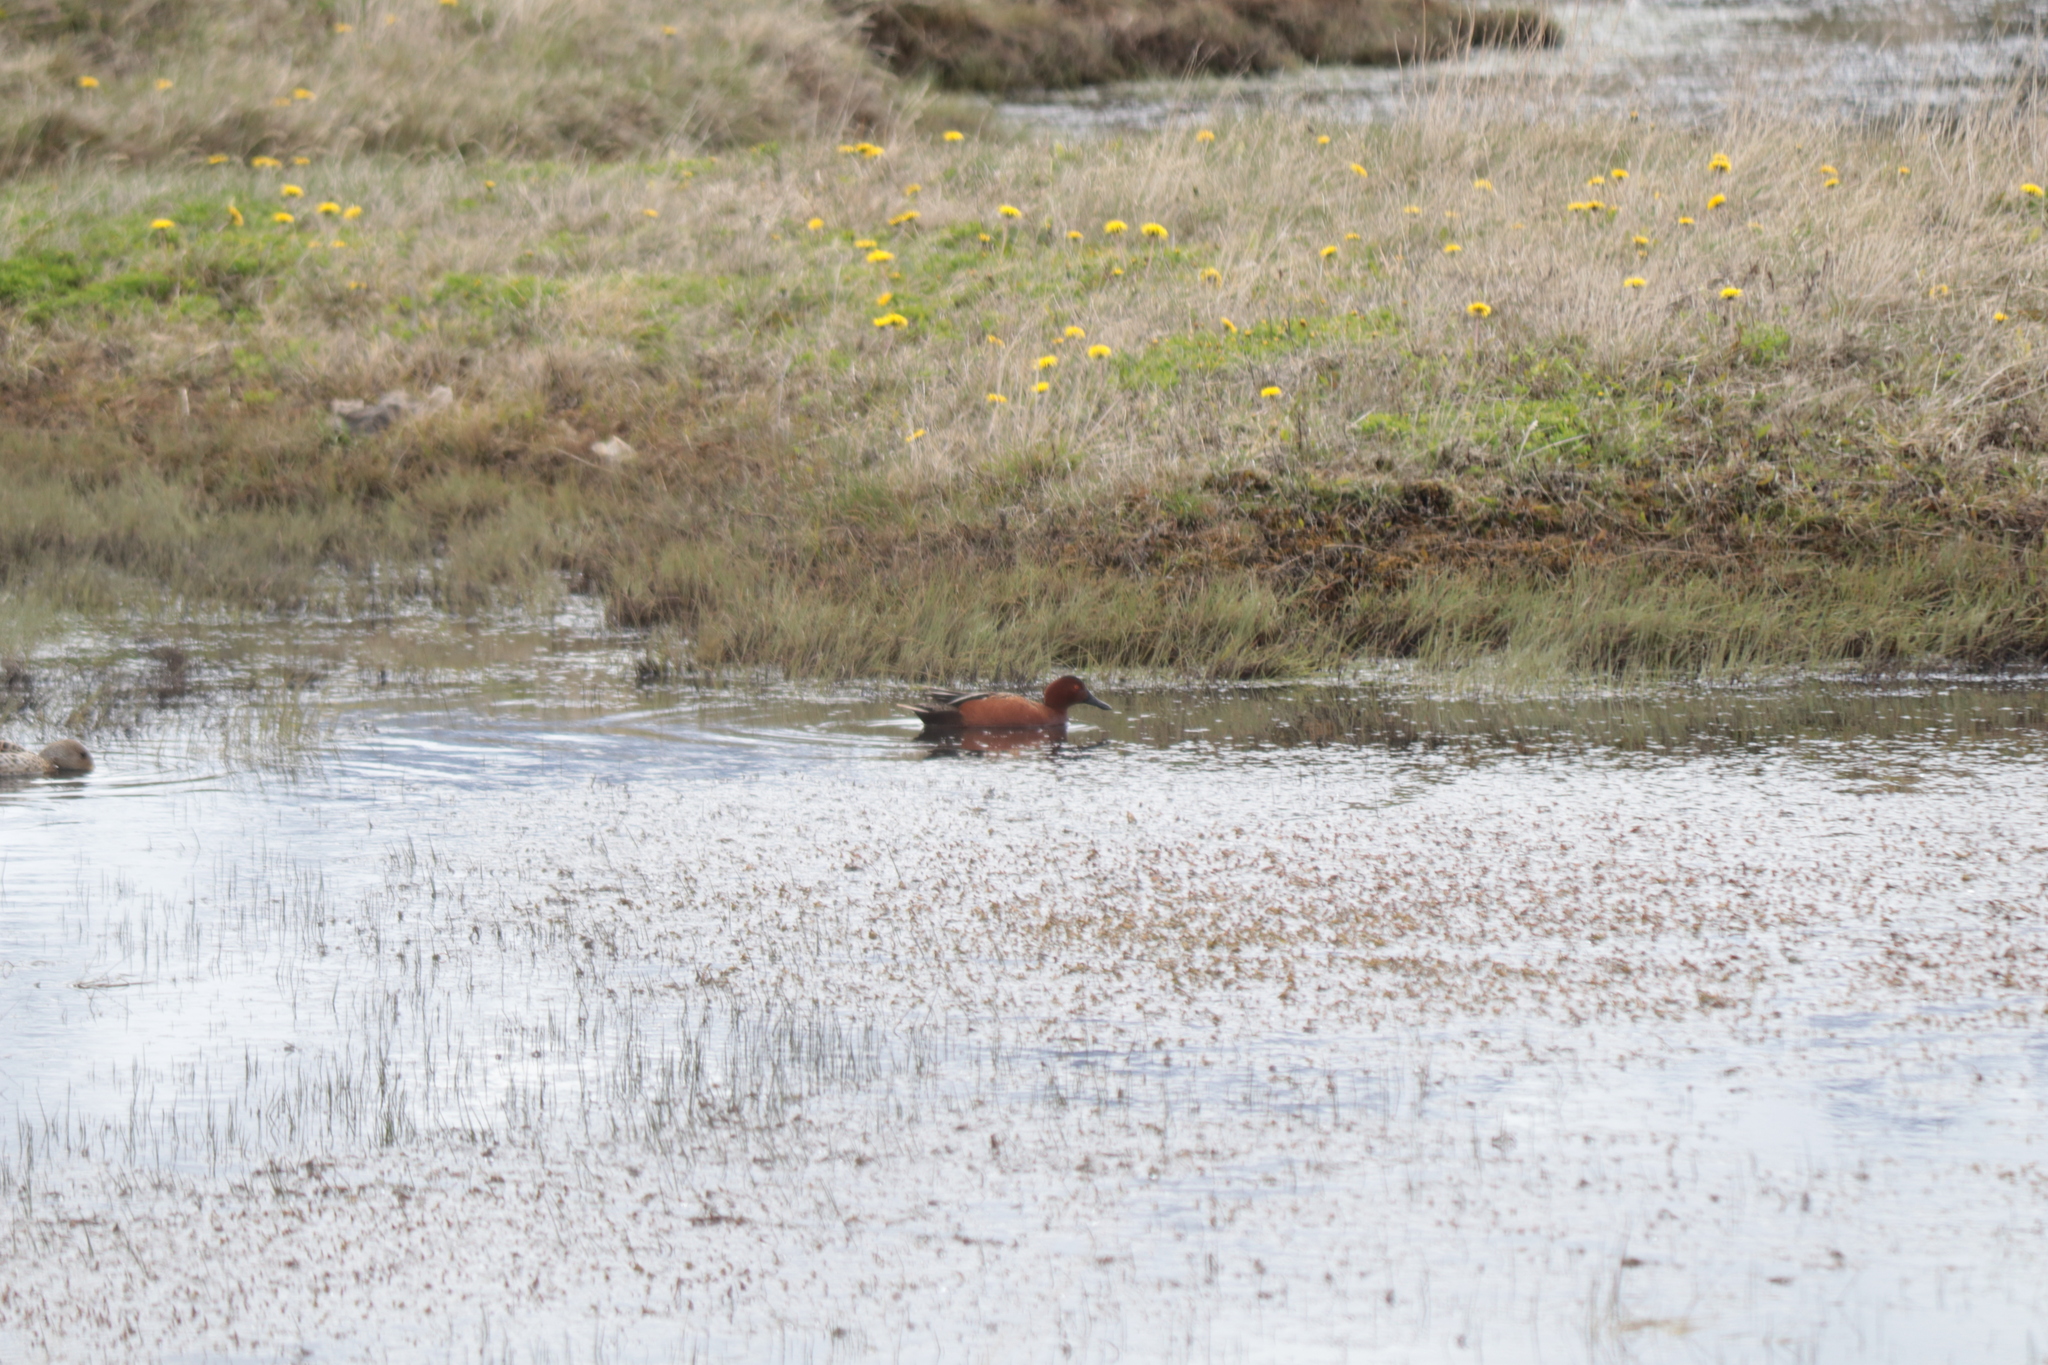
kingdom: Animalia
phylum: Chordata
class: Aves
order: Anseriformes
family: Anatidae
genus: Spatula
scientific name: Spatula cyanoptera
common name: Cinnamon teal
